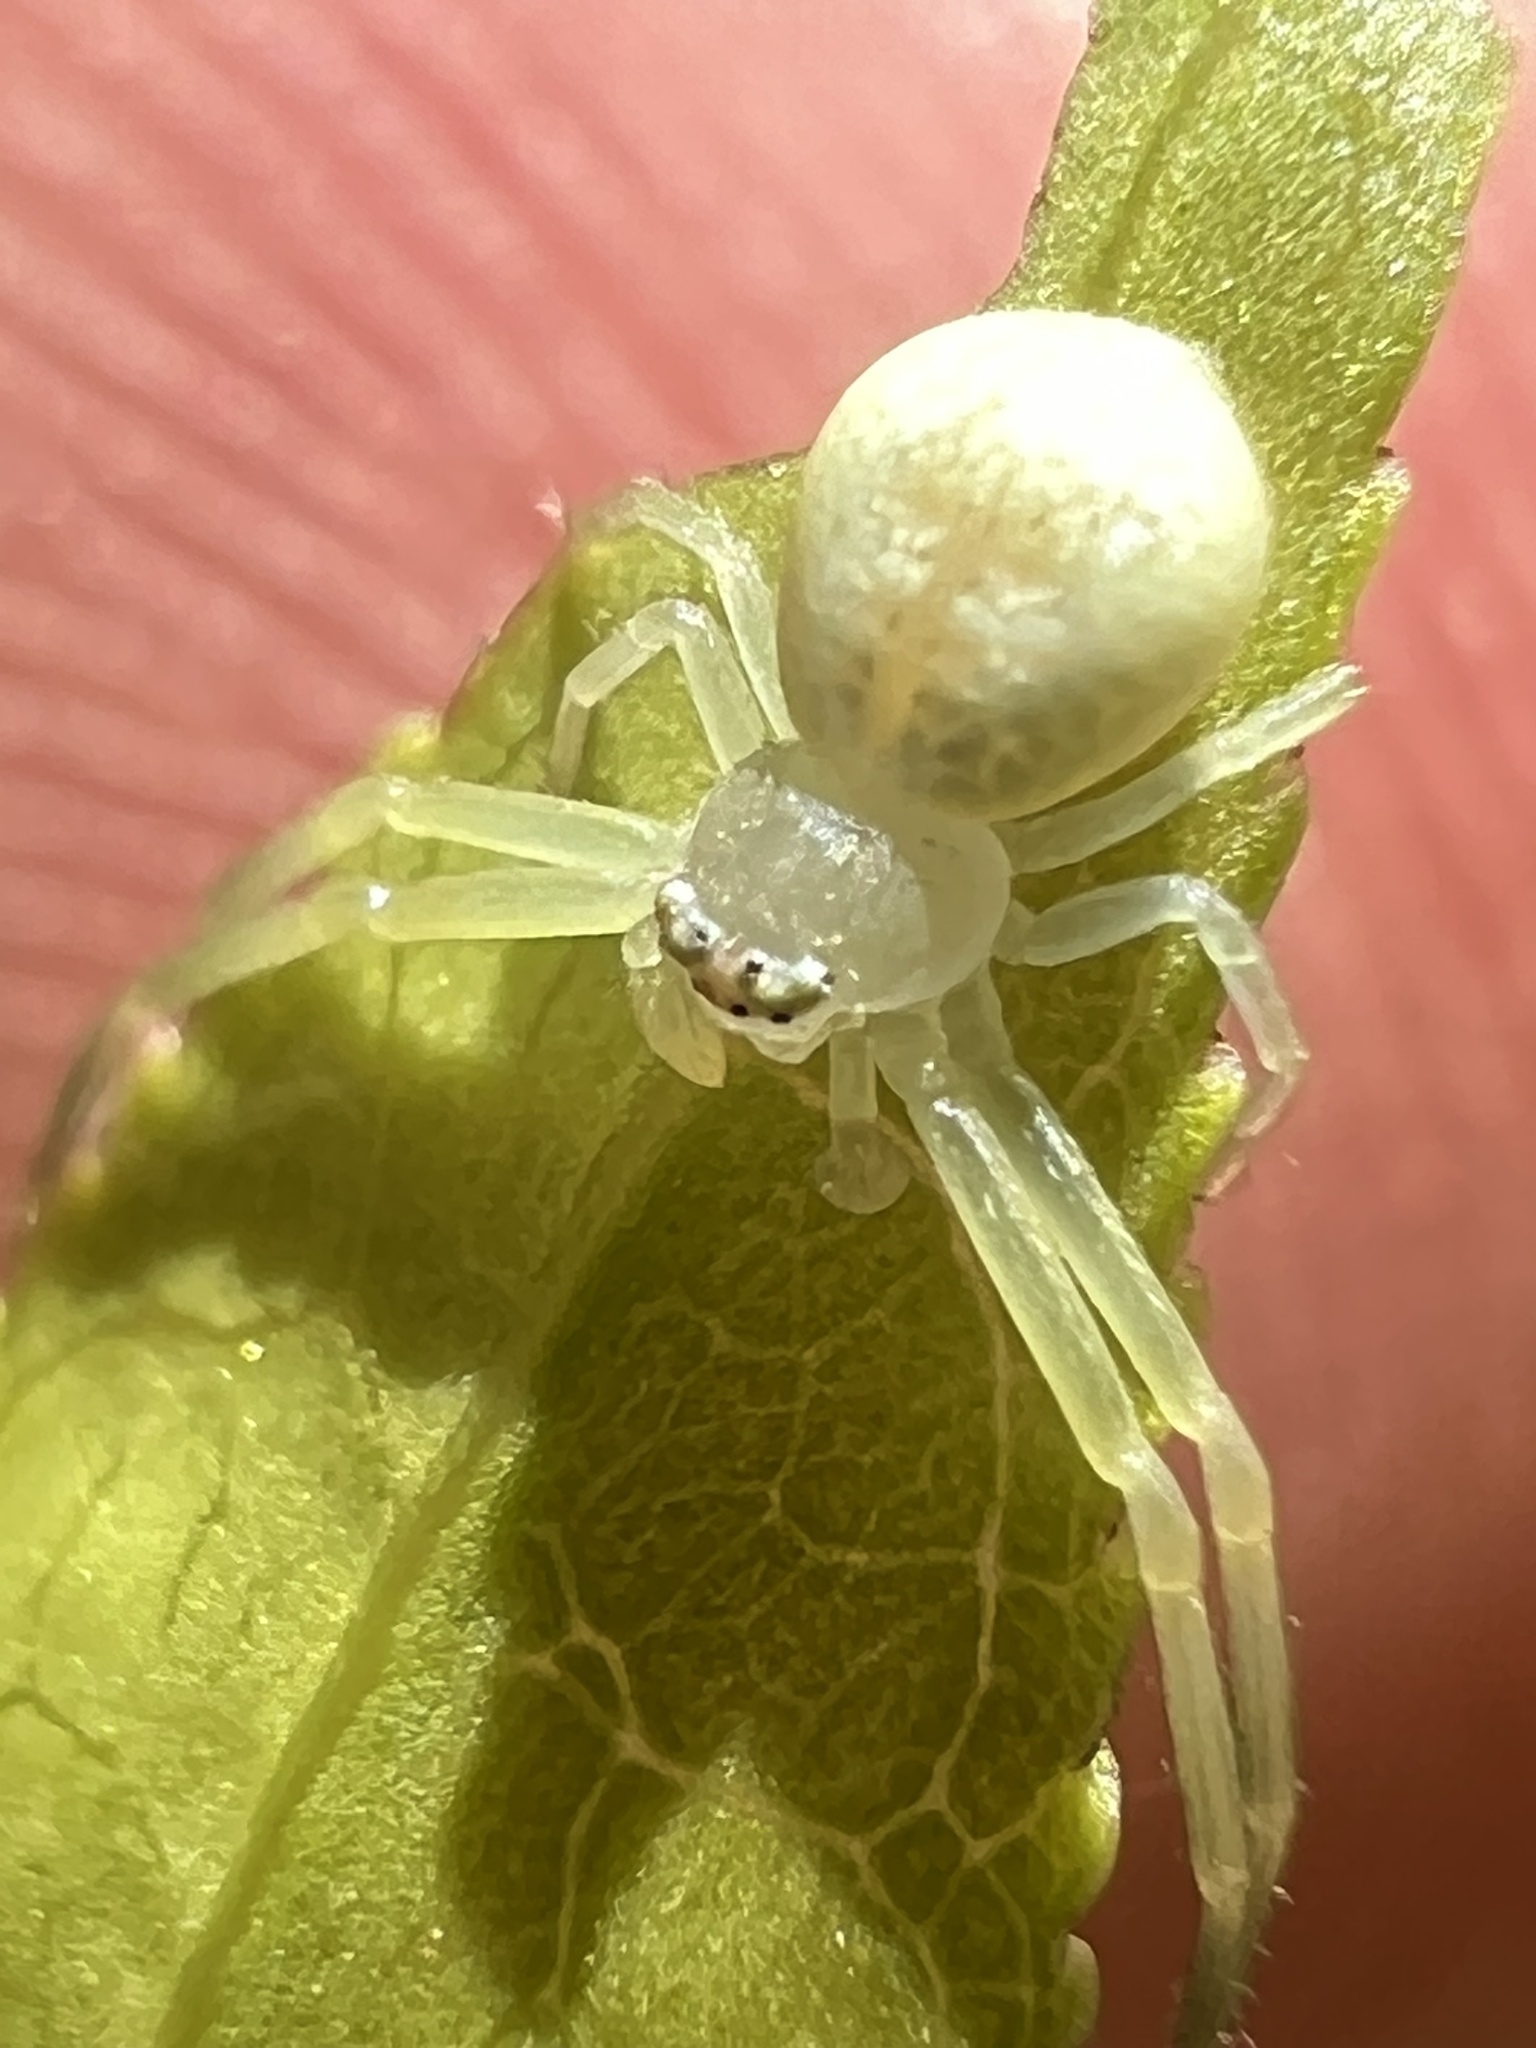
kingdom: Animalia
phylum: Arthropoda
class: Arachnida
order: Araneae
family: Thomisidae
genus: Misumessus
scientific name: Misumessus oblongus
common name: American green crab spider
